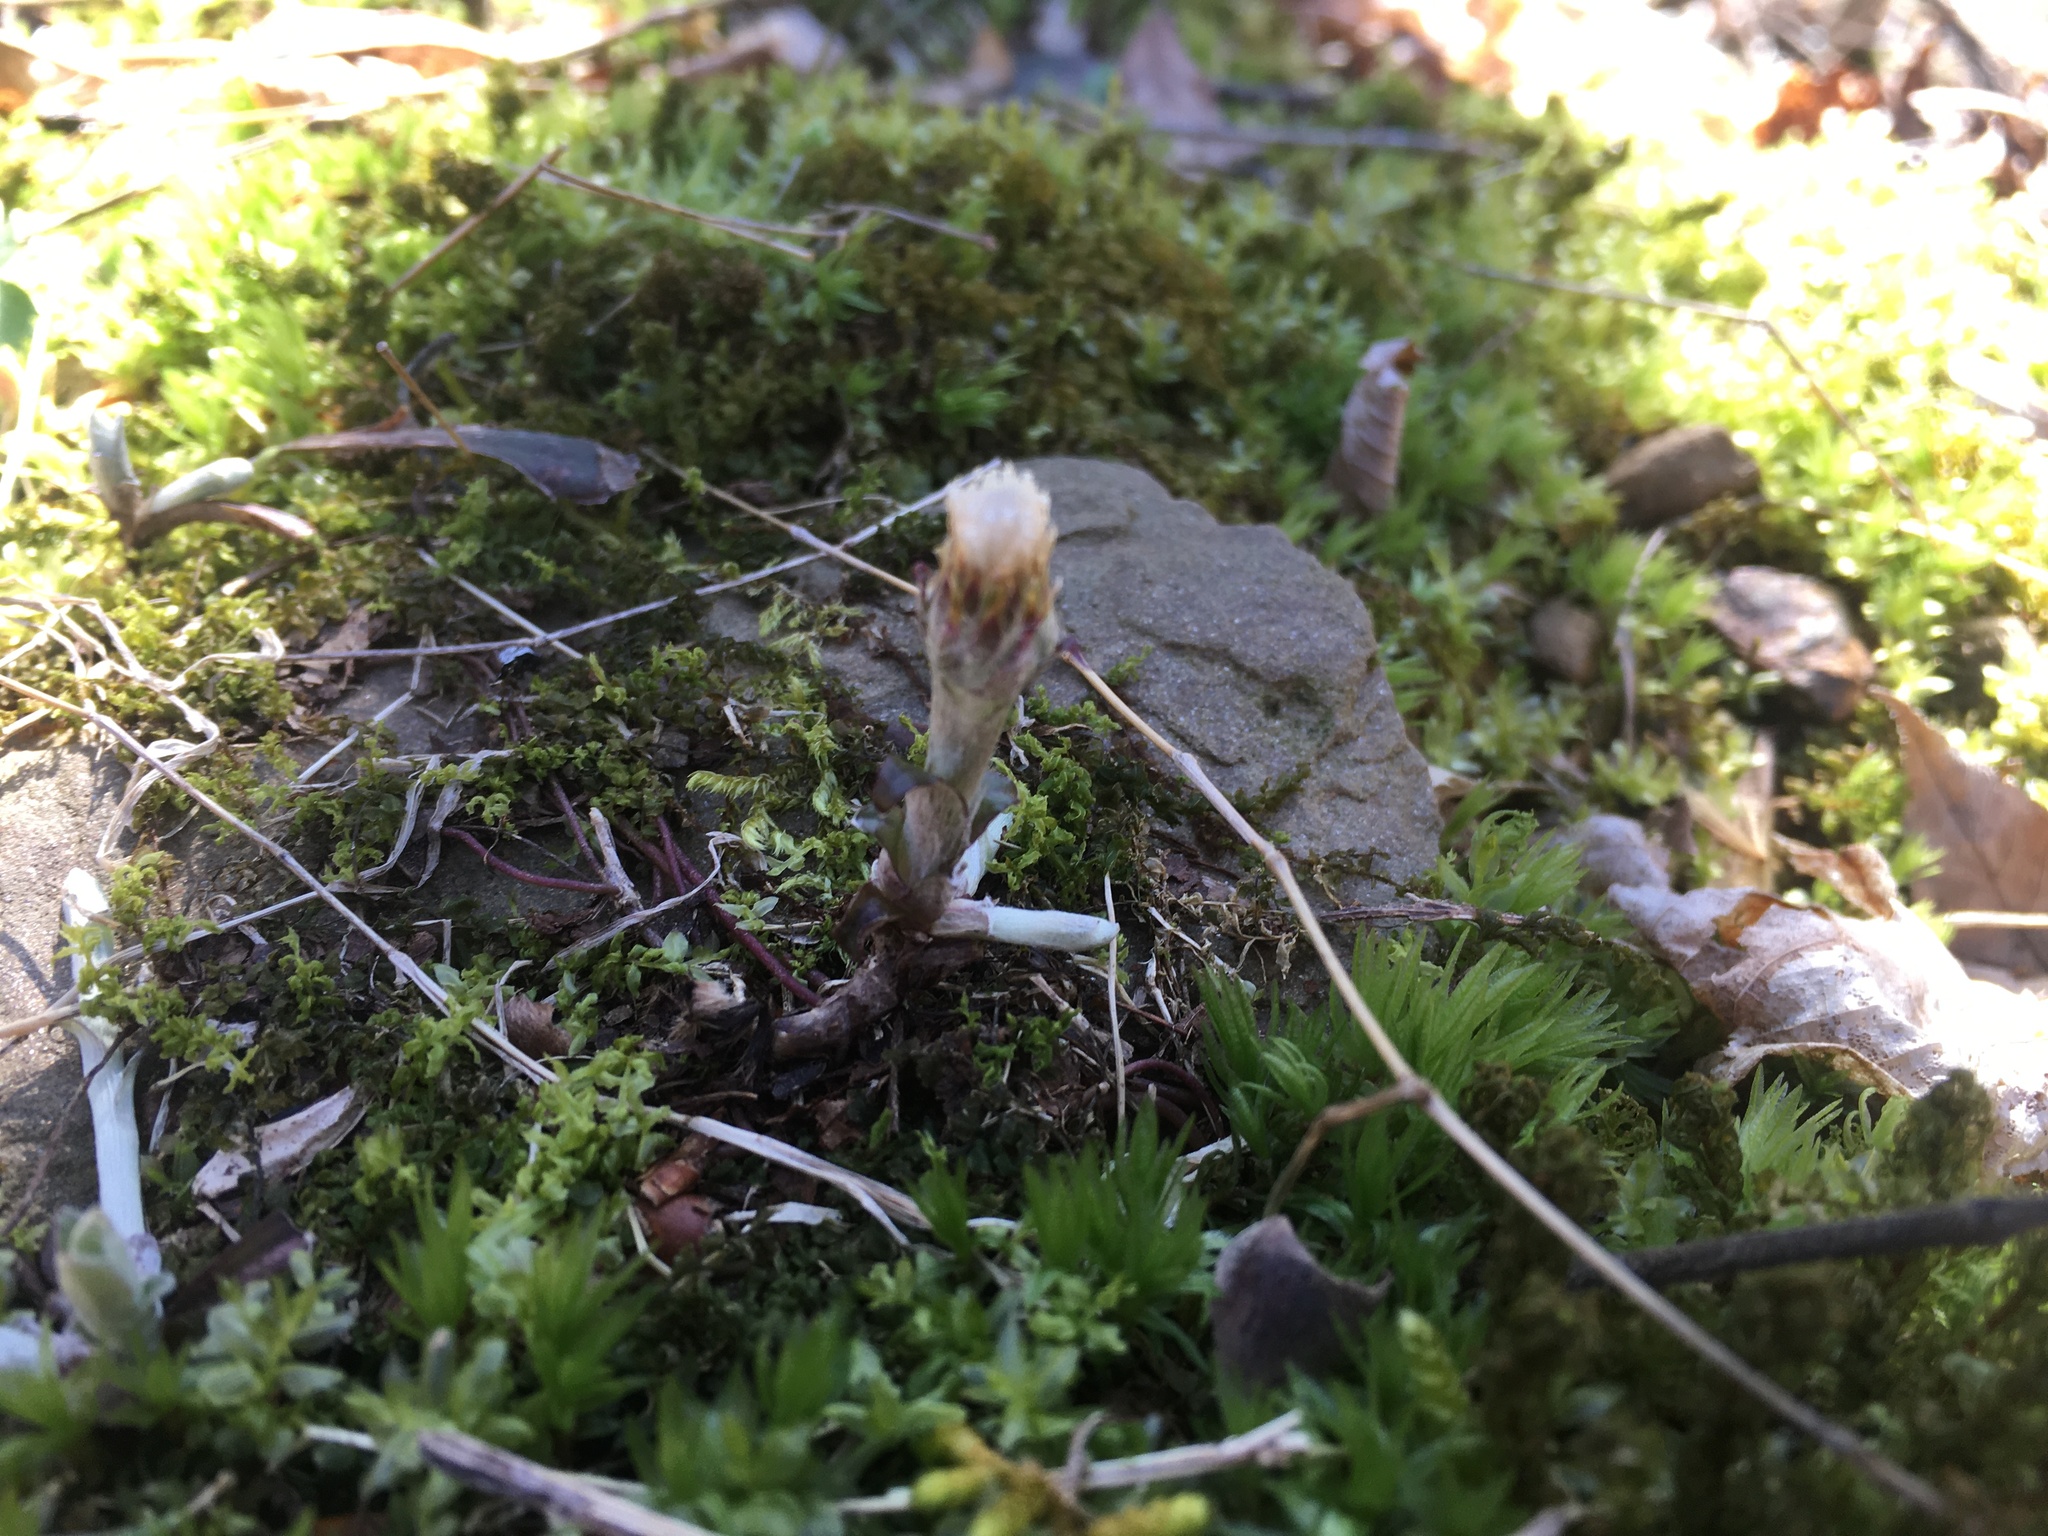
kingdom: Plantae
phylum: Tracheophyta
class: Magnoliopsida
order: Asterales
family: Asteraceae
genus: Antennaria
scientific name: Antennaria solitaria
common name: Single-head pussytoes
